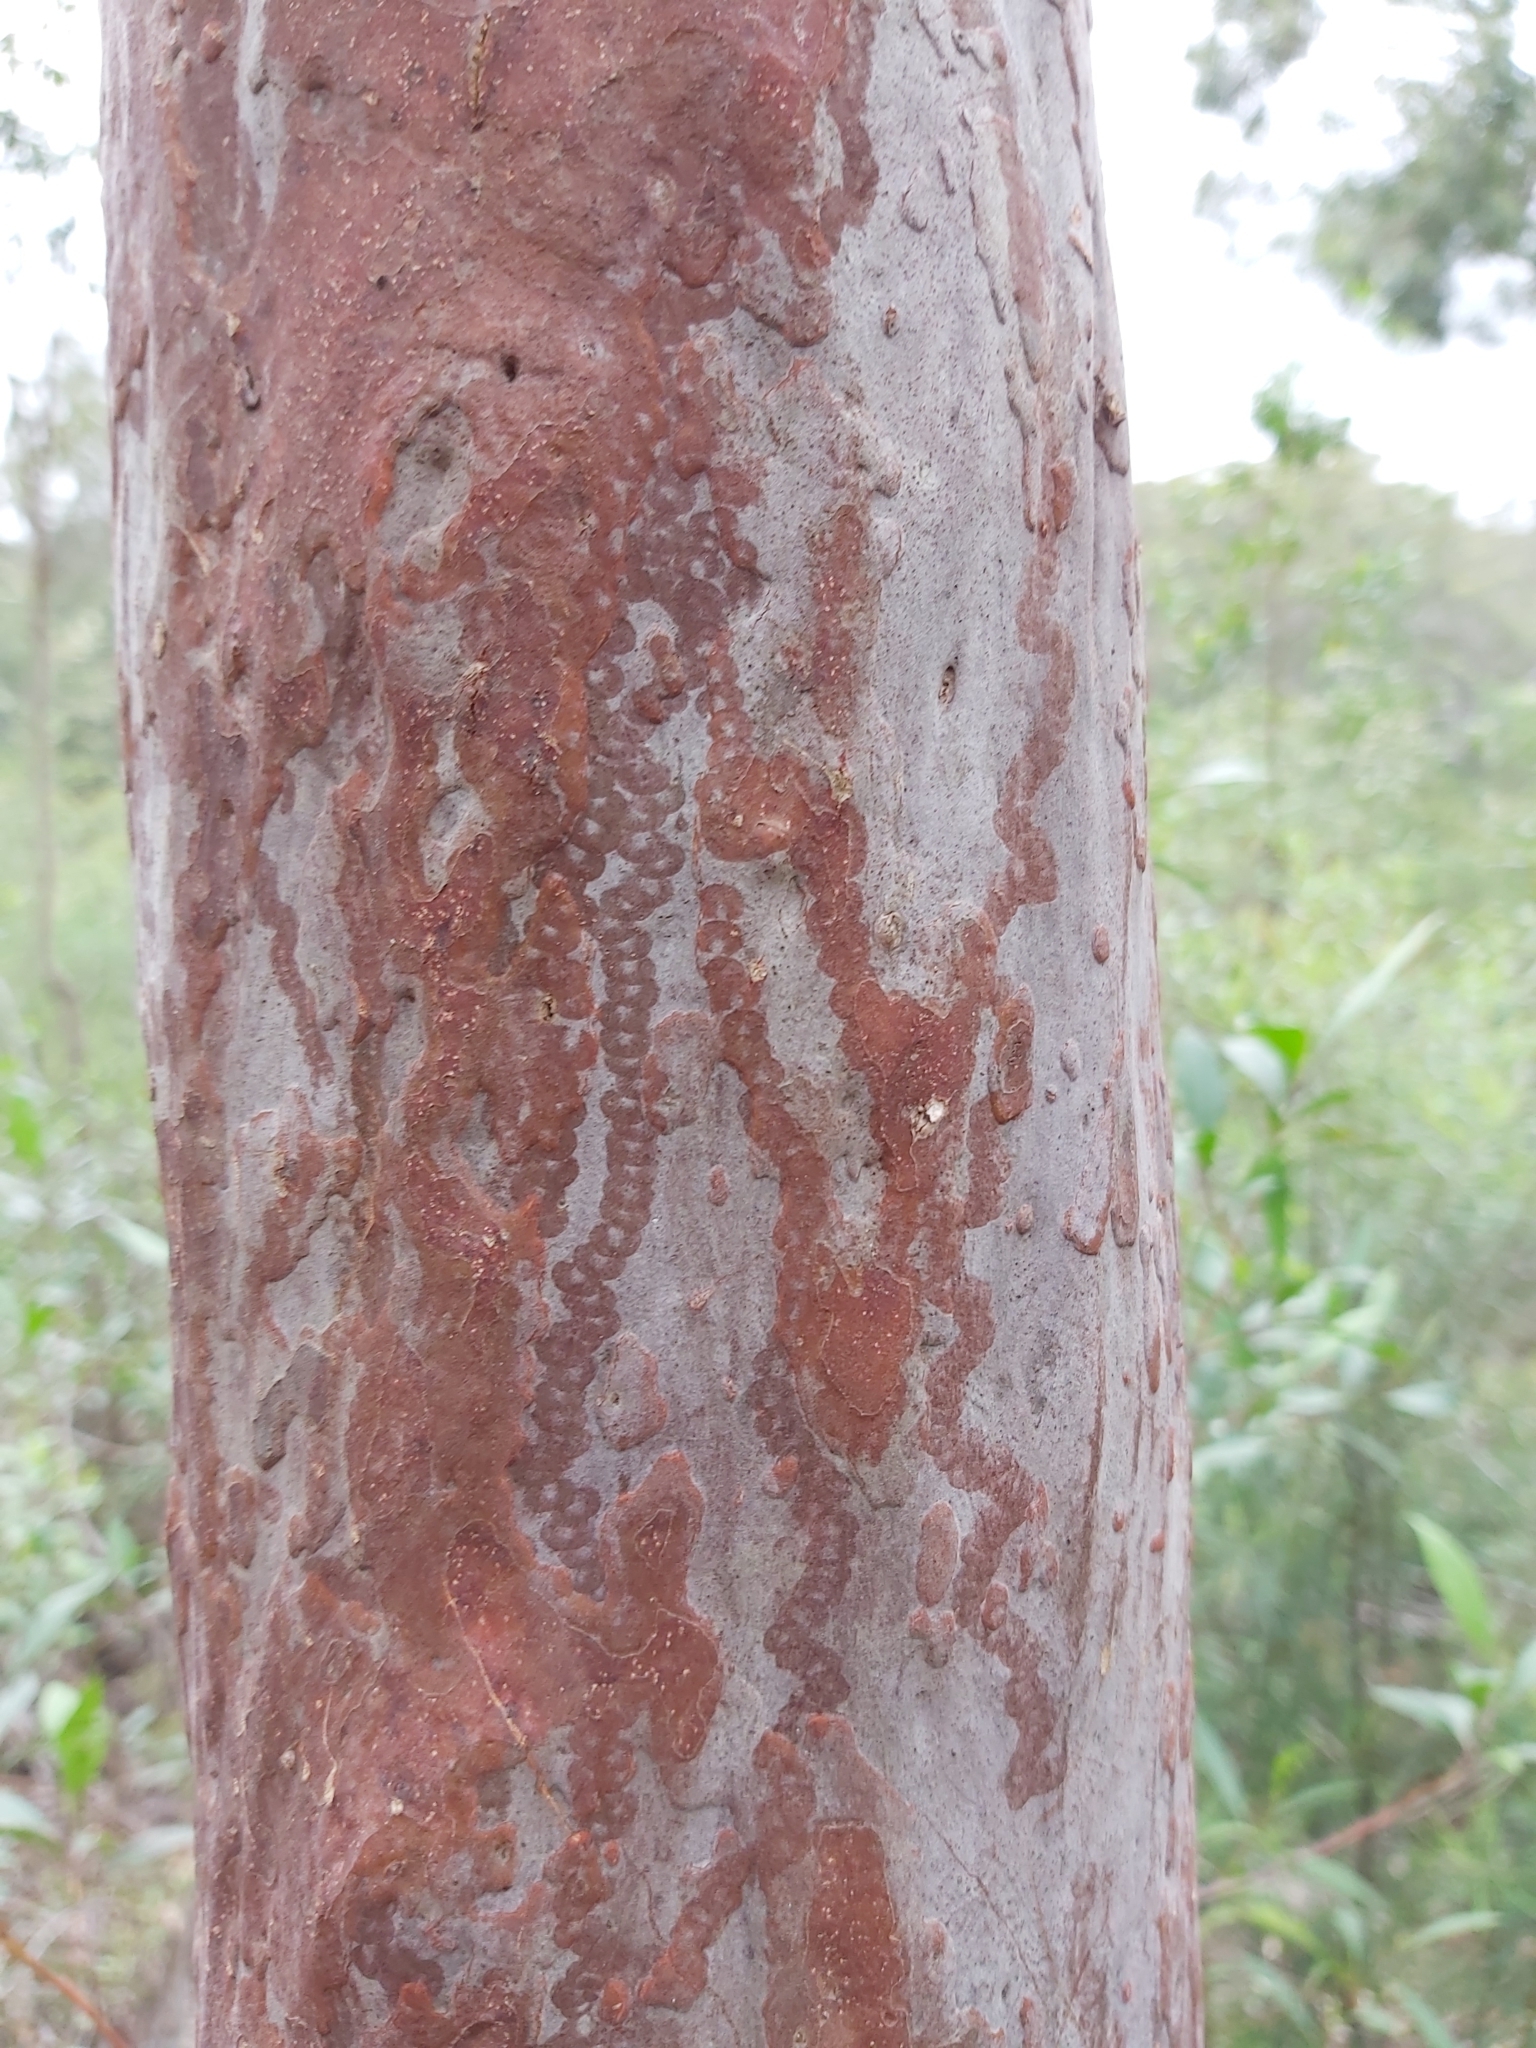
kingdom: Animalia
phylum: Mollusca
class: Gastropoda
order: Stylommatophora
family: Athoracophoridae
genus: Triboniophorus
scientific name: Triboniophorus graeffei
